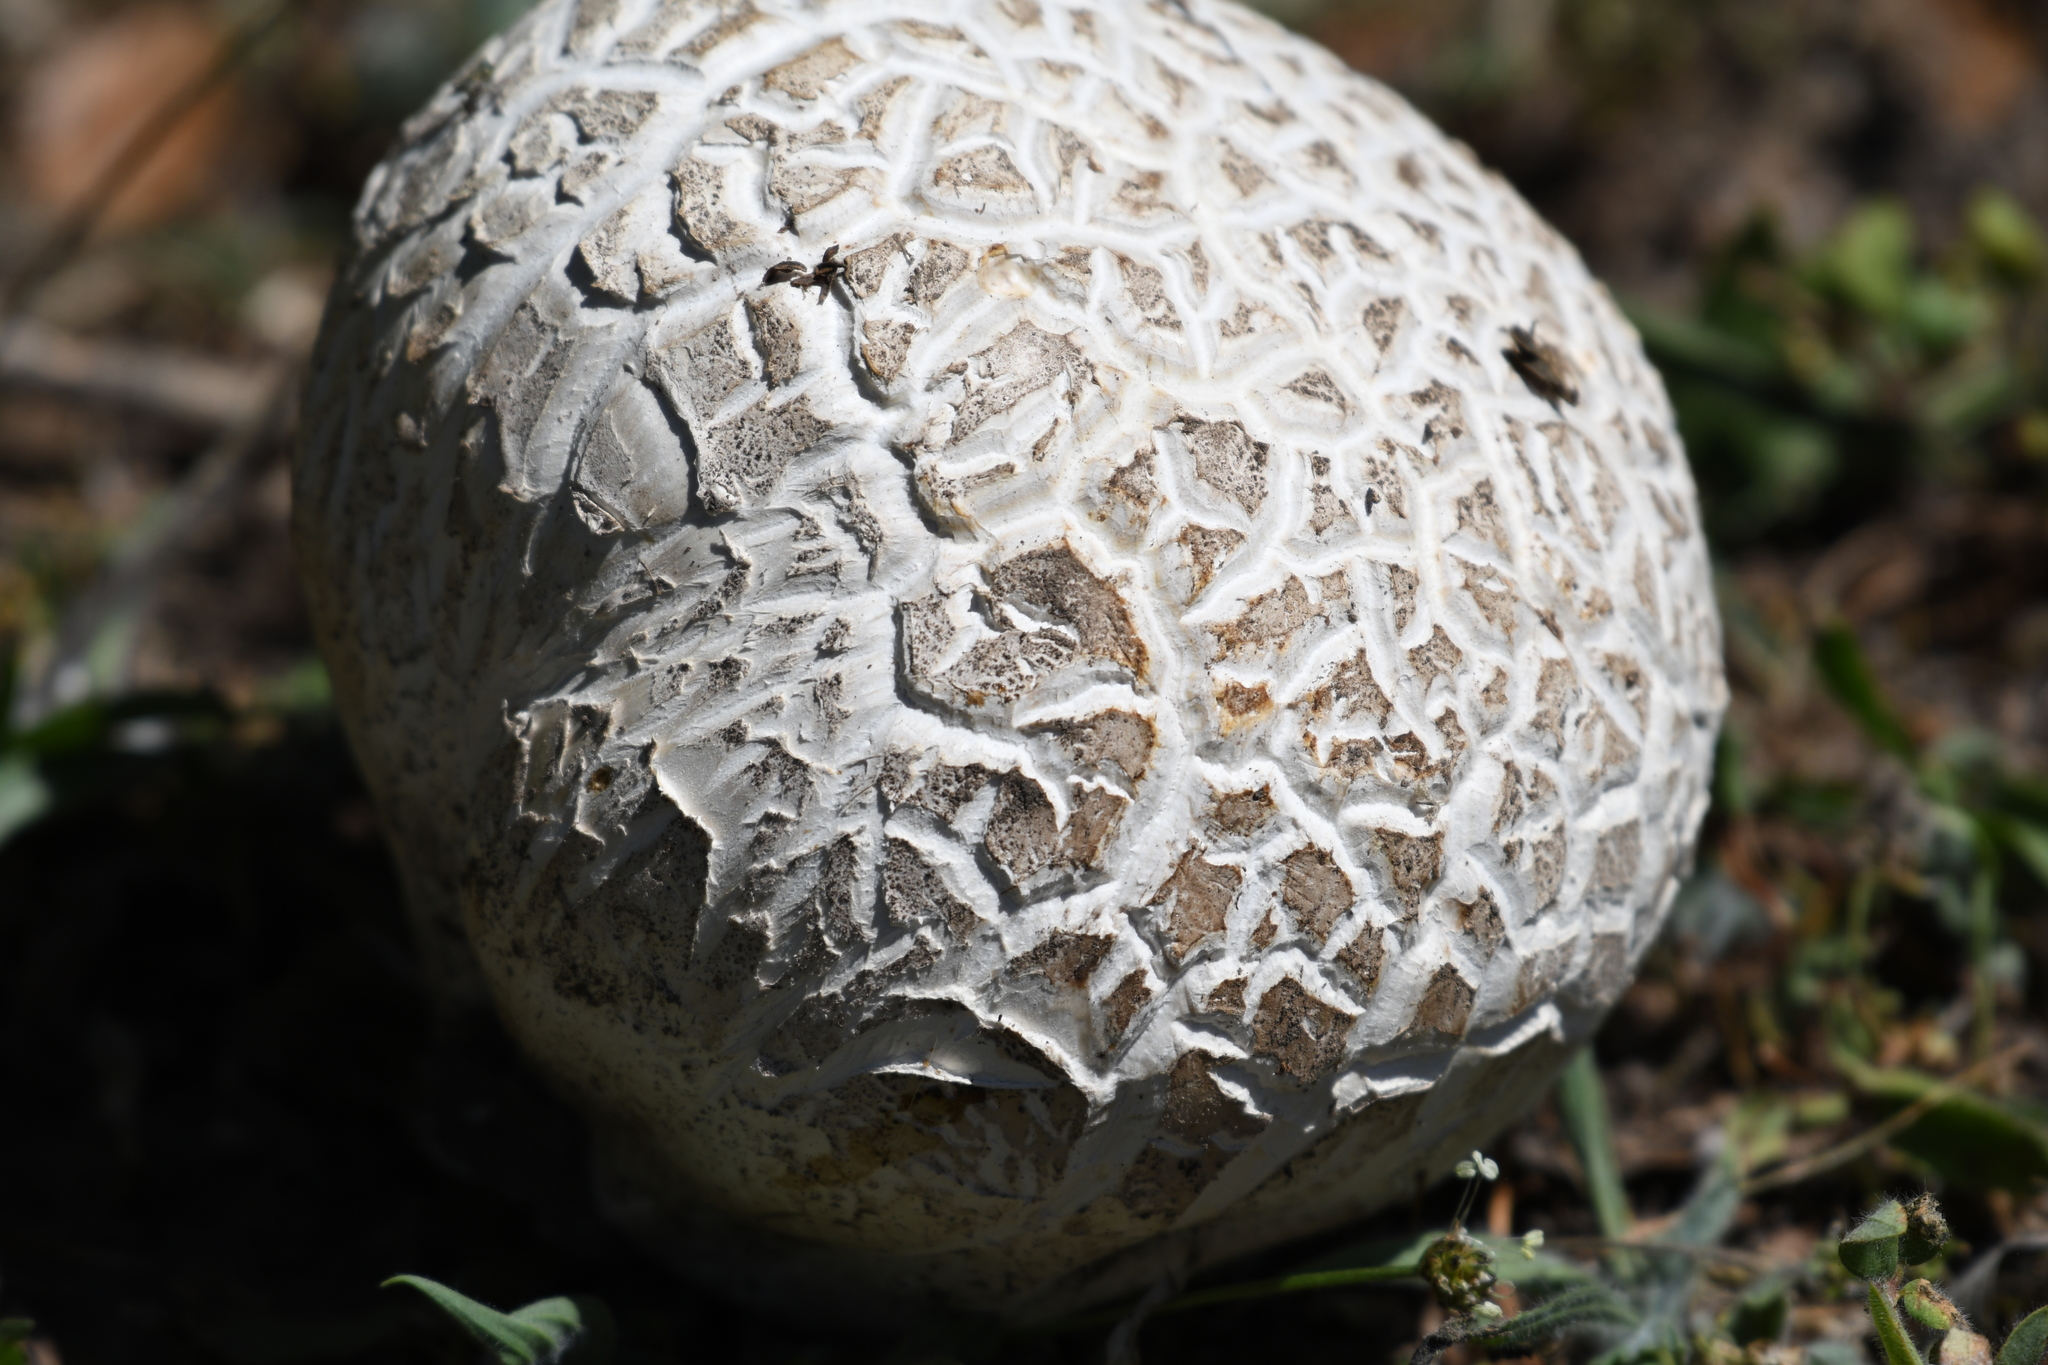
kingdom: Fungi
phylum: Basidiomycota
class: Agaricomycetes
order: Agaricales
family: Lycoperdaceae
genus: Calvatia
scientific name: Calvatia booniana
